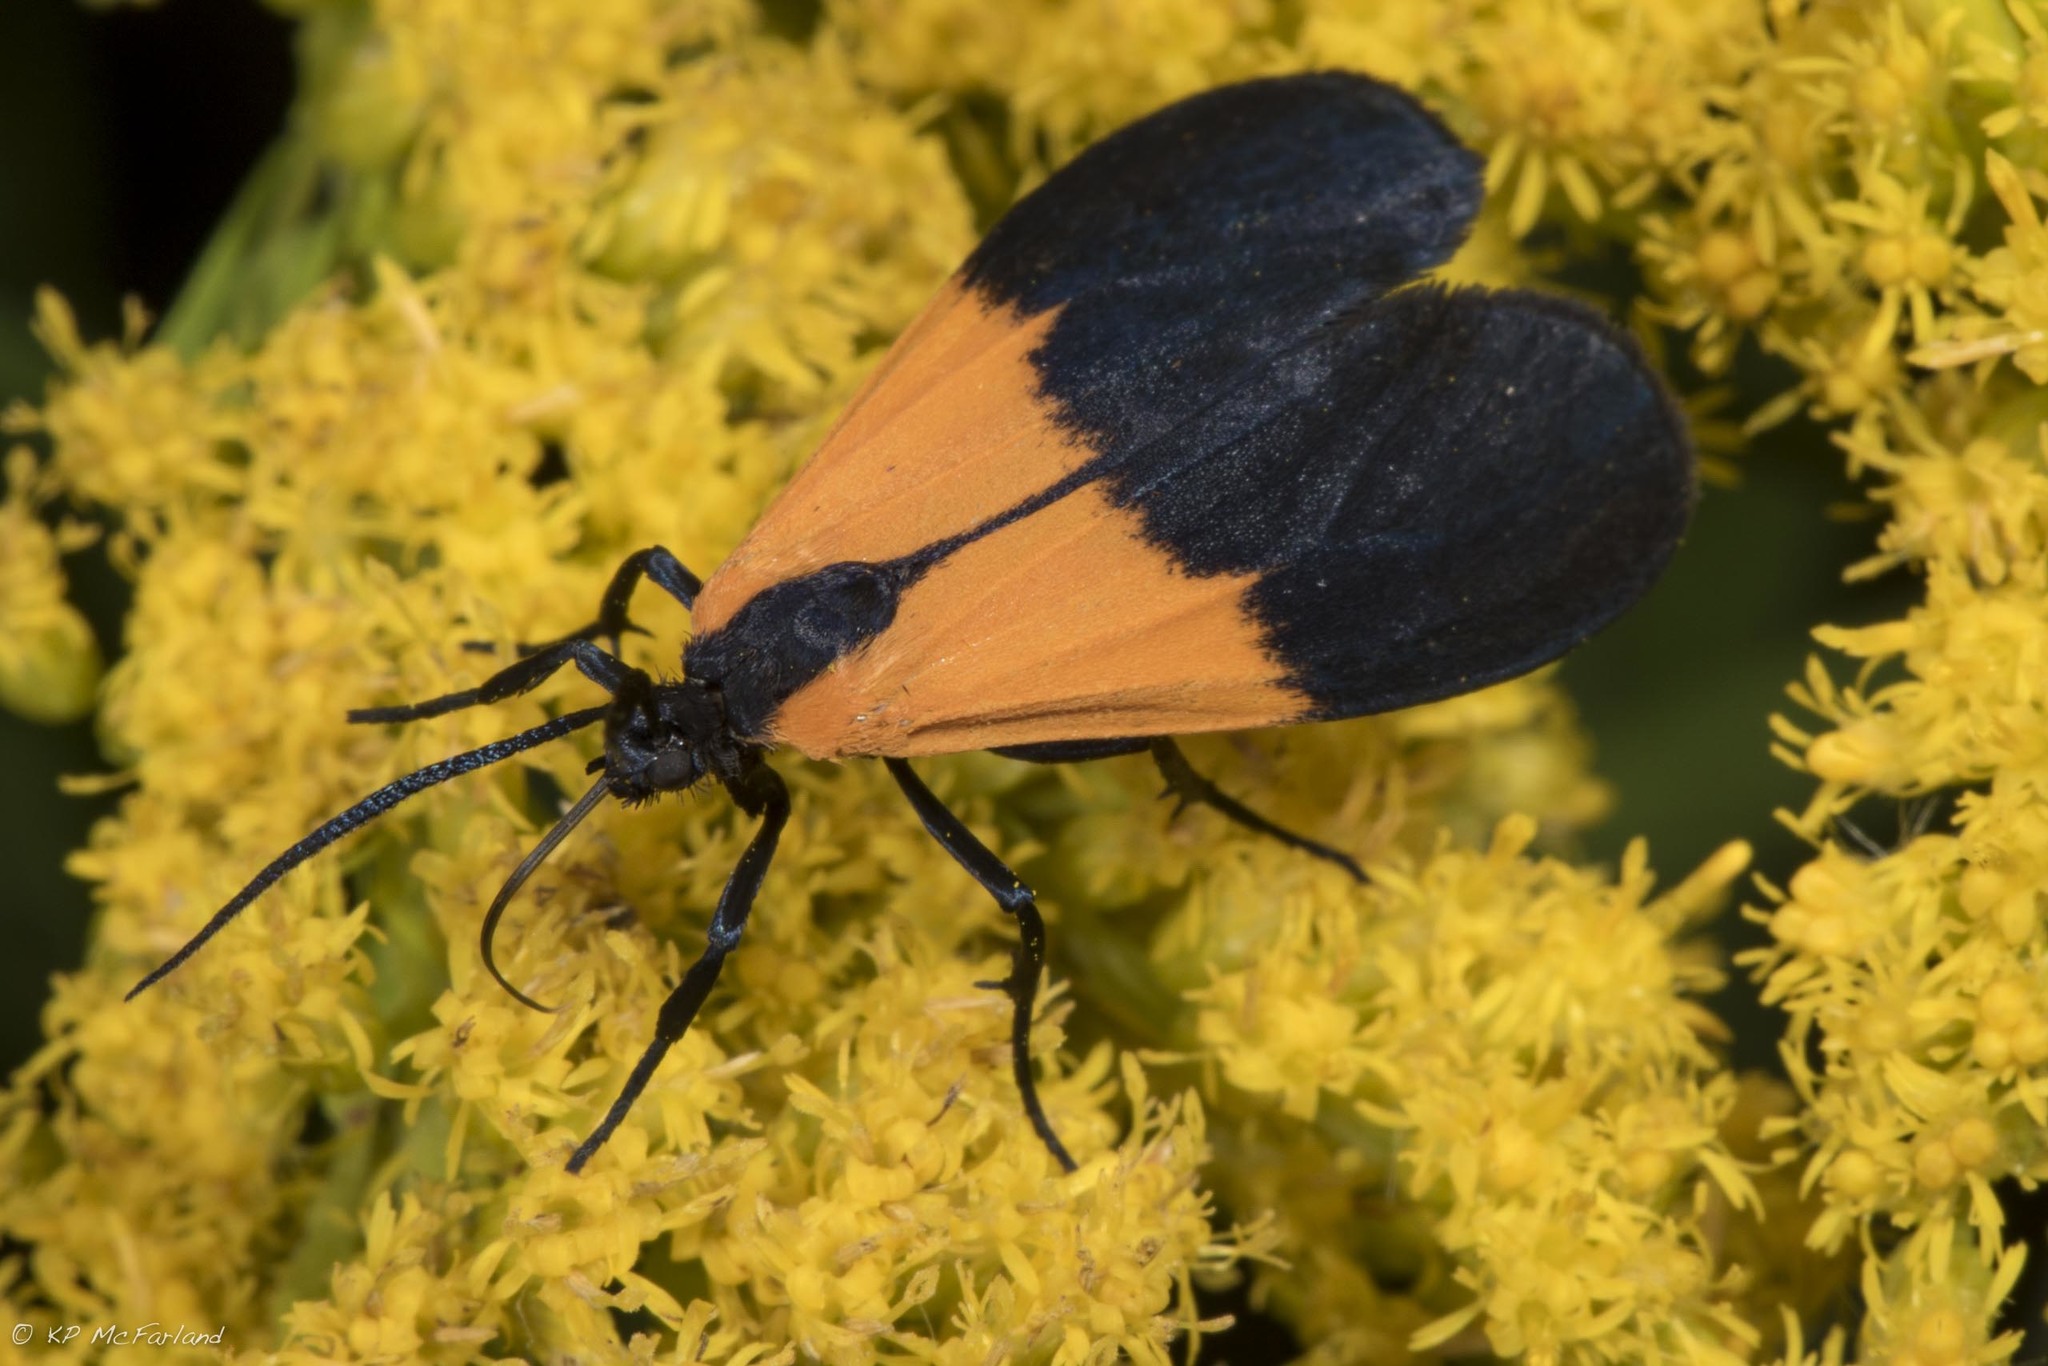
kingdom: Animalia
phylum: Arthropoda
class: Insecta
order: Lepidoptera
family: Erebidae
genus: Lycomorpha
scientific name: Lycomorpha pholus
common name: Black-and-yellow lichen moth
